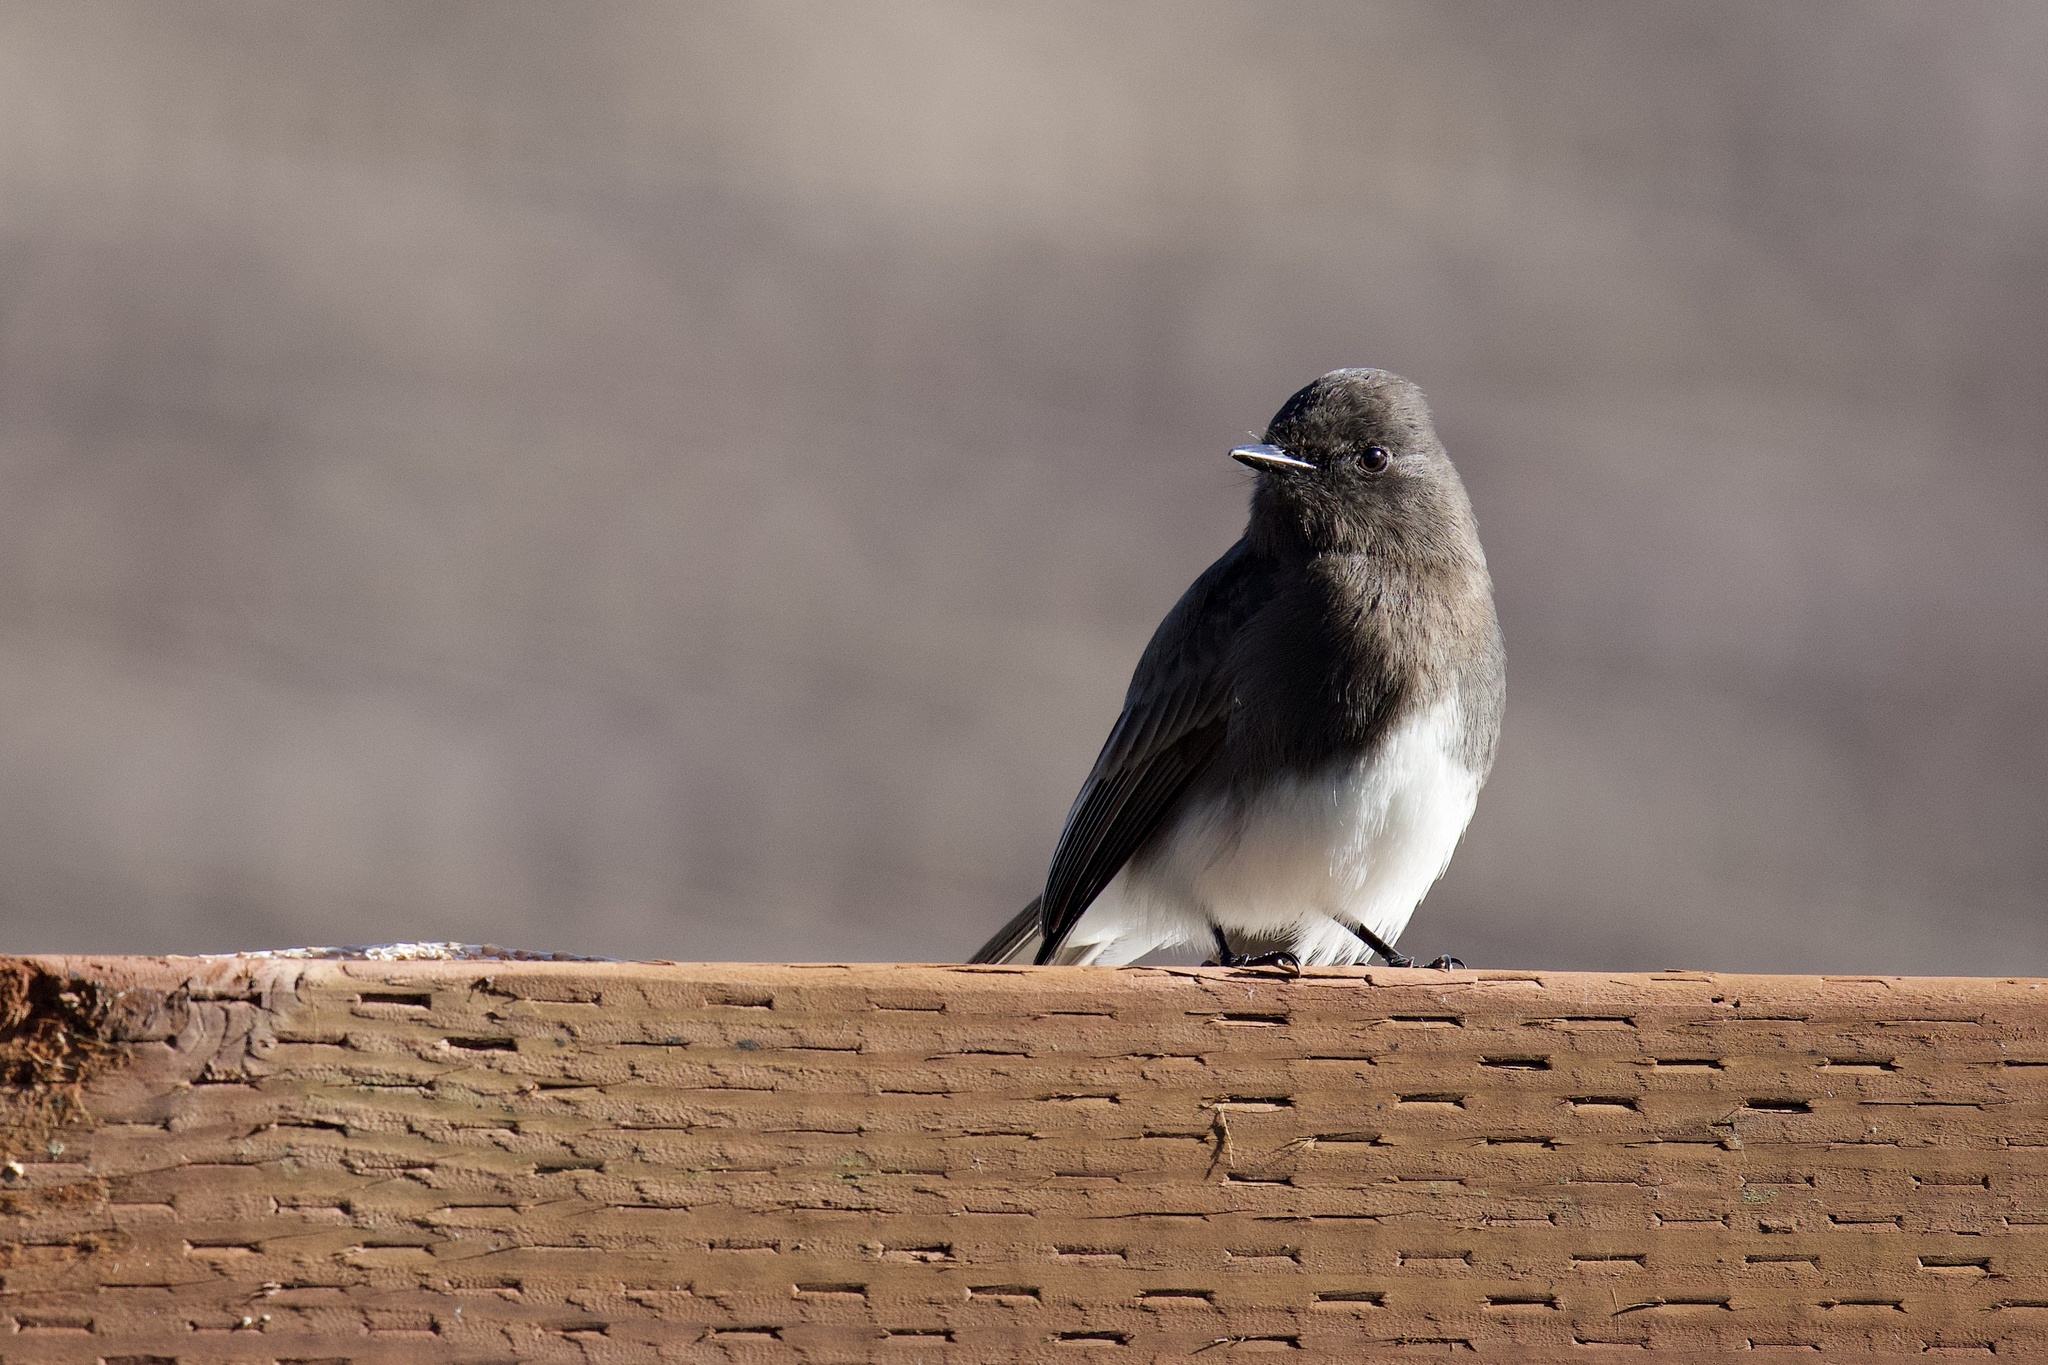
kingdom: Animalia
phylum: Chordata
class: Aves
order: Passeriformes
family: Tyrannidae
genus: Sayornis
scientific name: Sayornis nigricans
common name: Black phoebe
